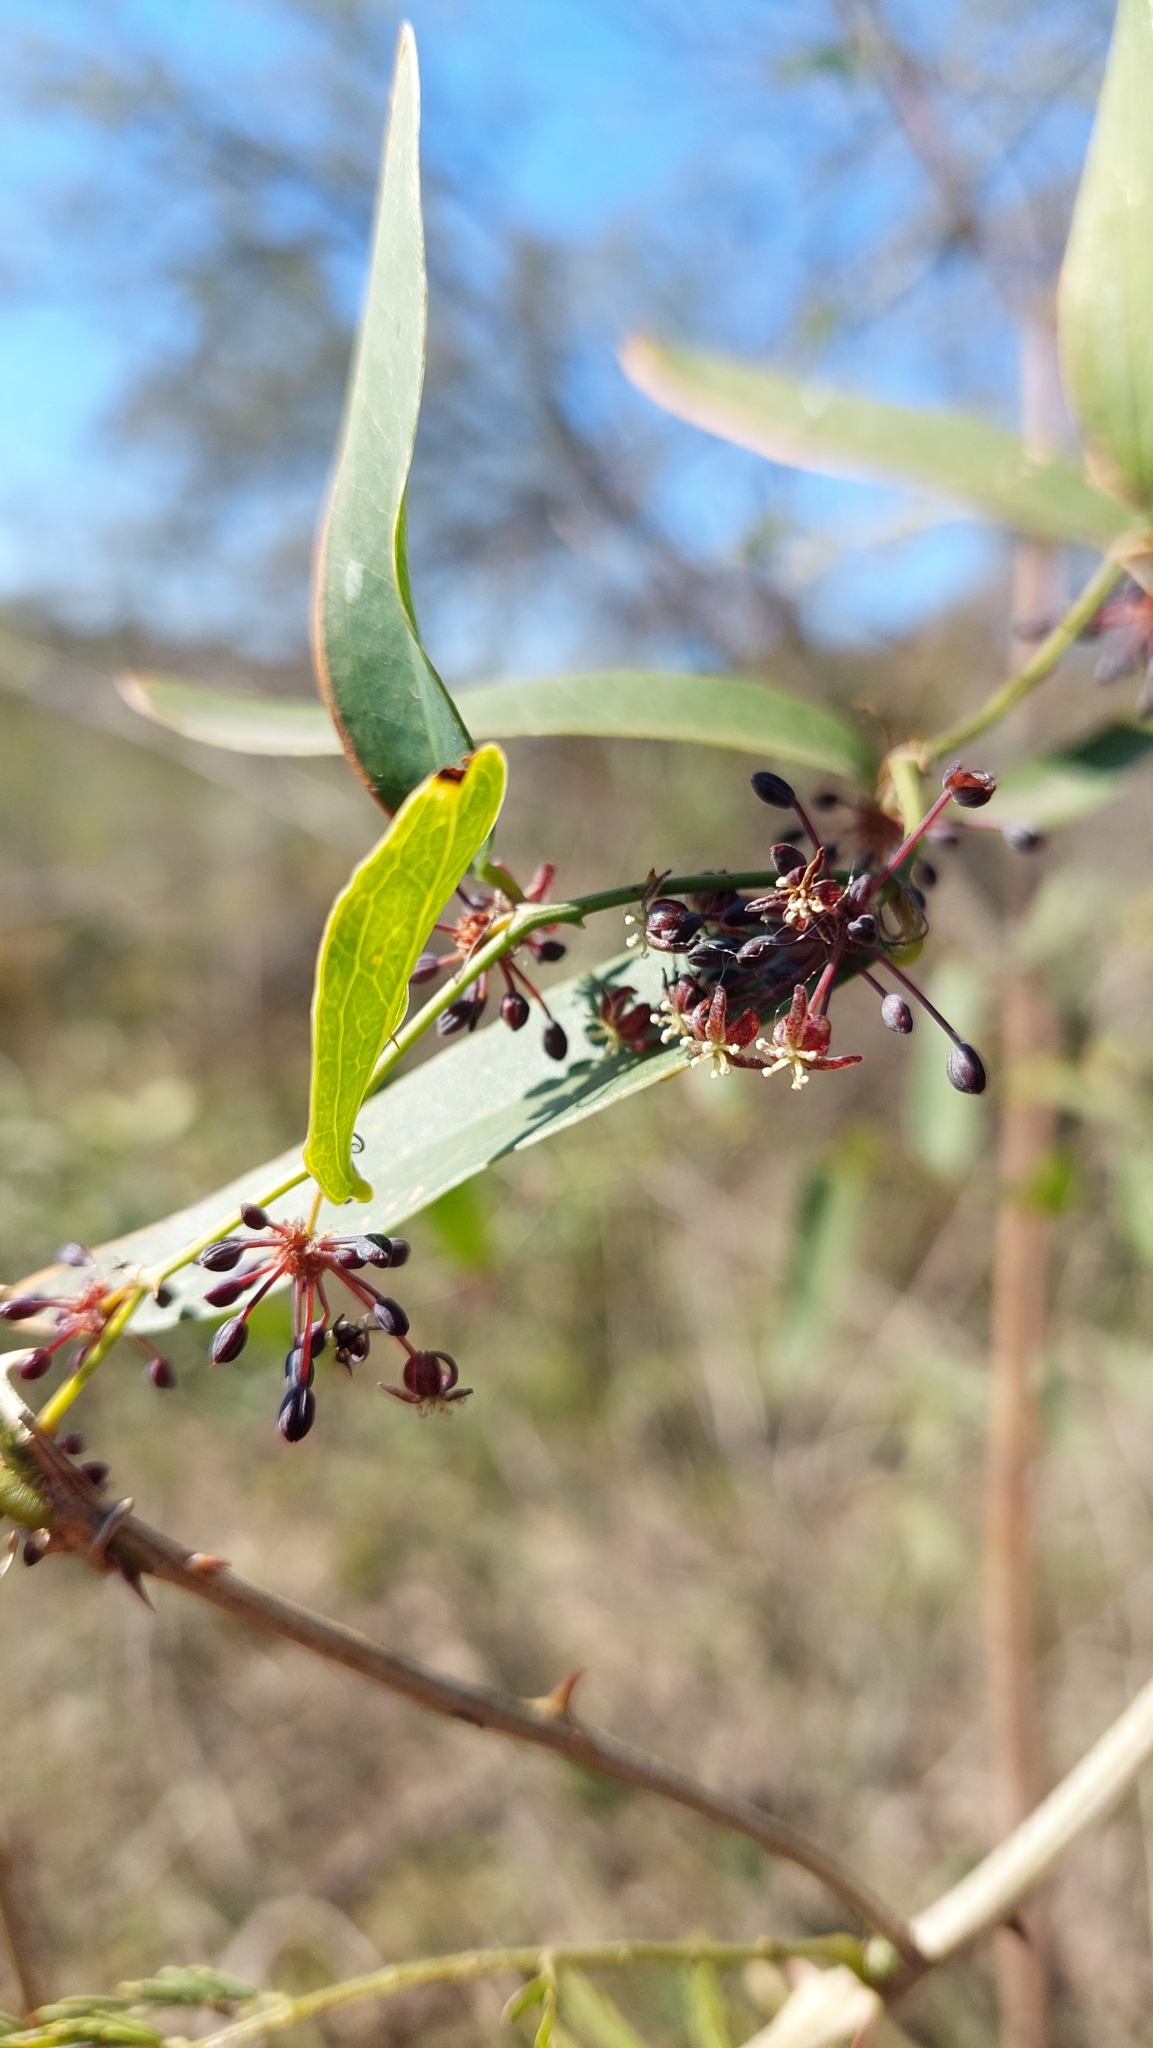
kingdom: Plantae
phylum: Tracheophyta
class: Liliopsida
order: Liliales
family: Smilacaceae
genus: Smilax
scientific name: Smilax campestris
